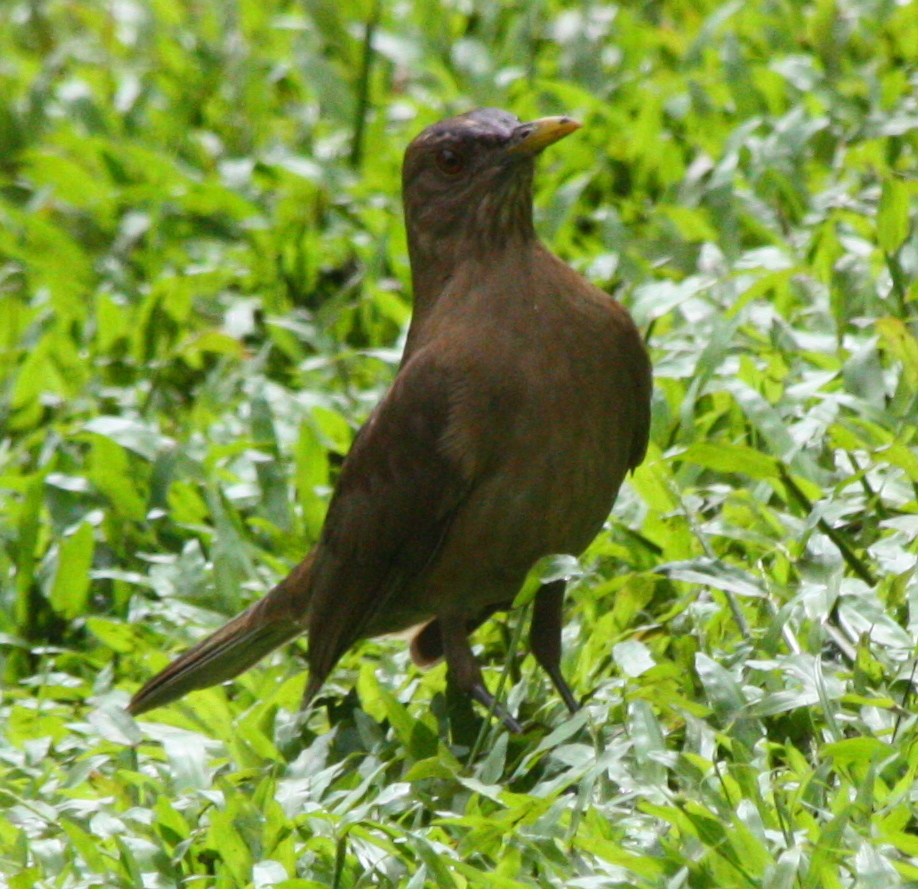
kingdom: Animalia
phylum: Chordata
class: Aves
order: Passeriformes
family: Turdidae
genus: Turdus
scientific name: Turdus grayi
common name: Clay-colored thrush
